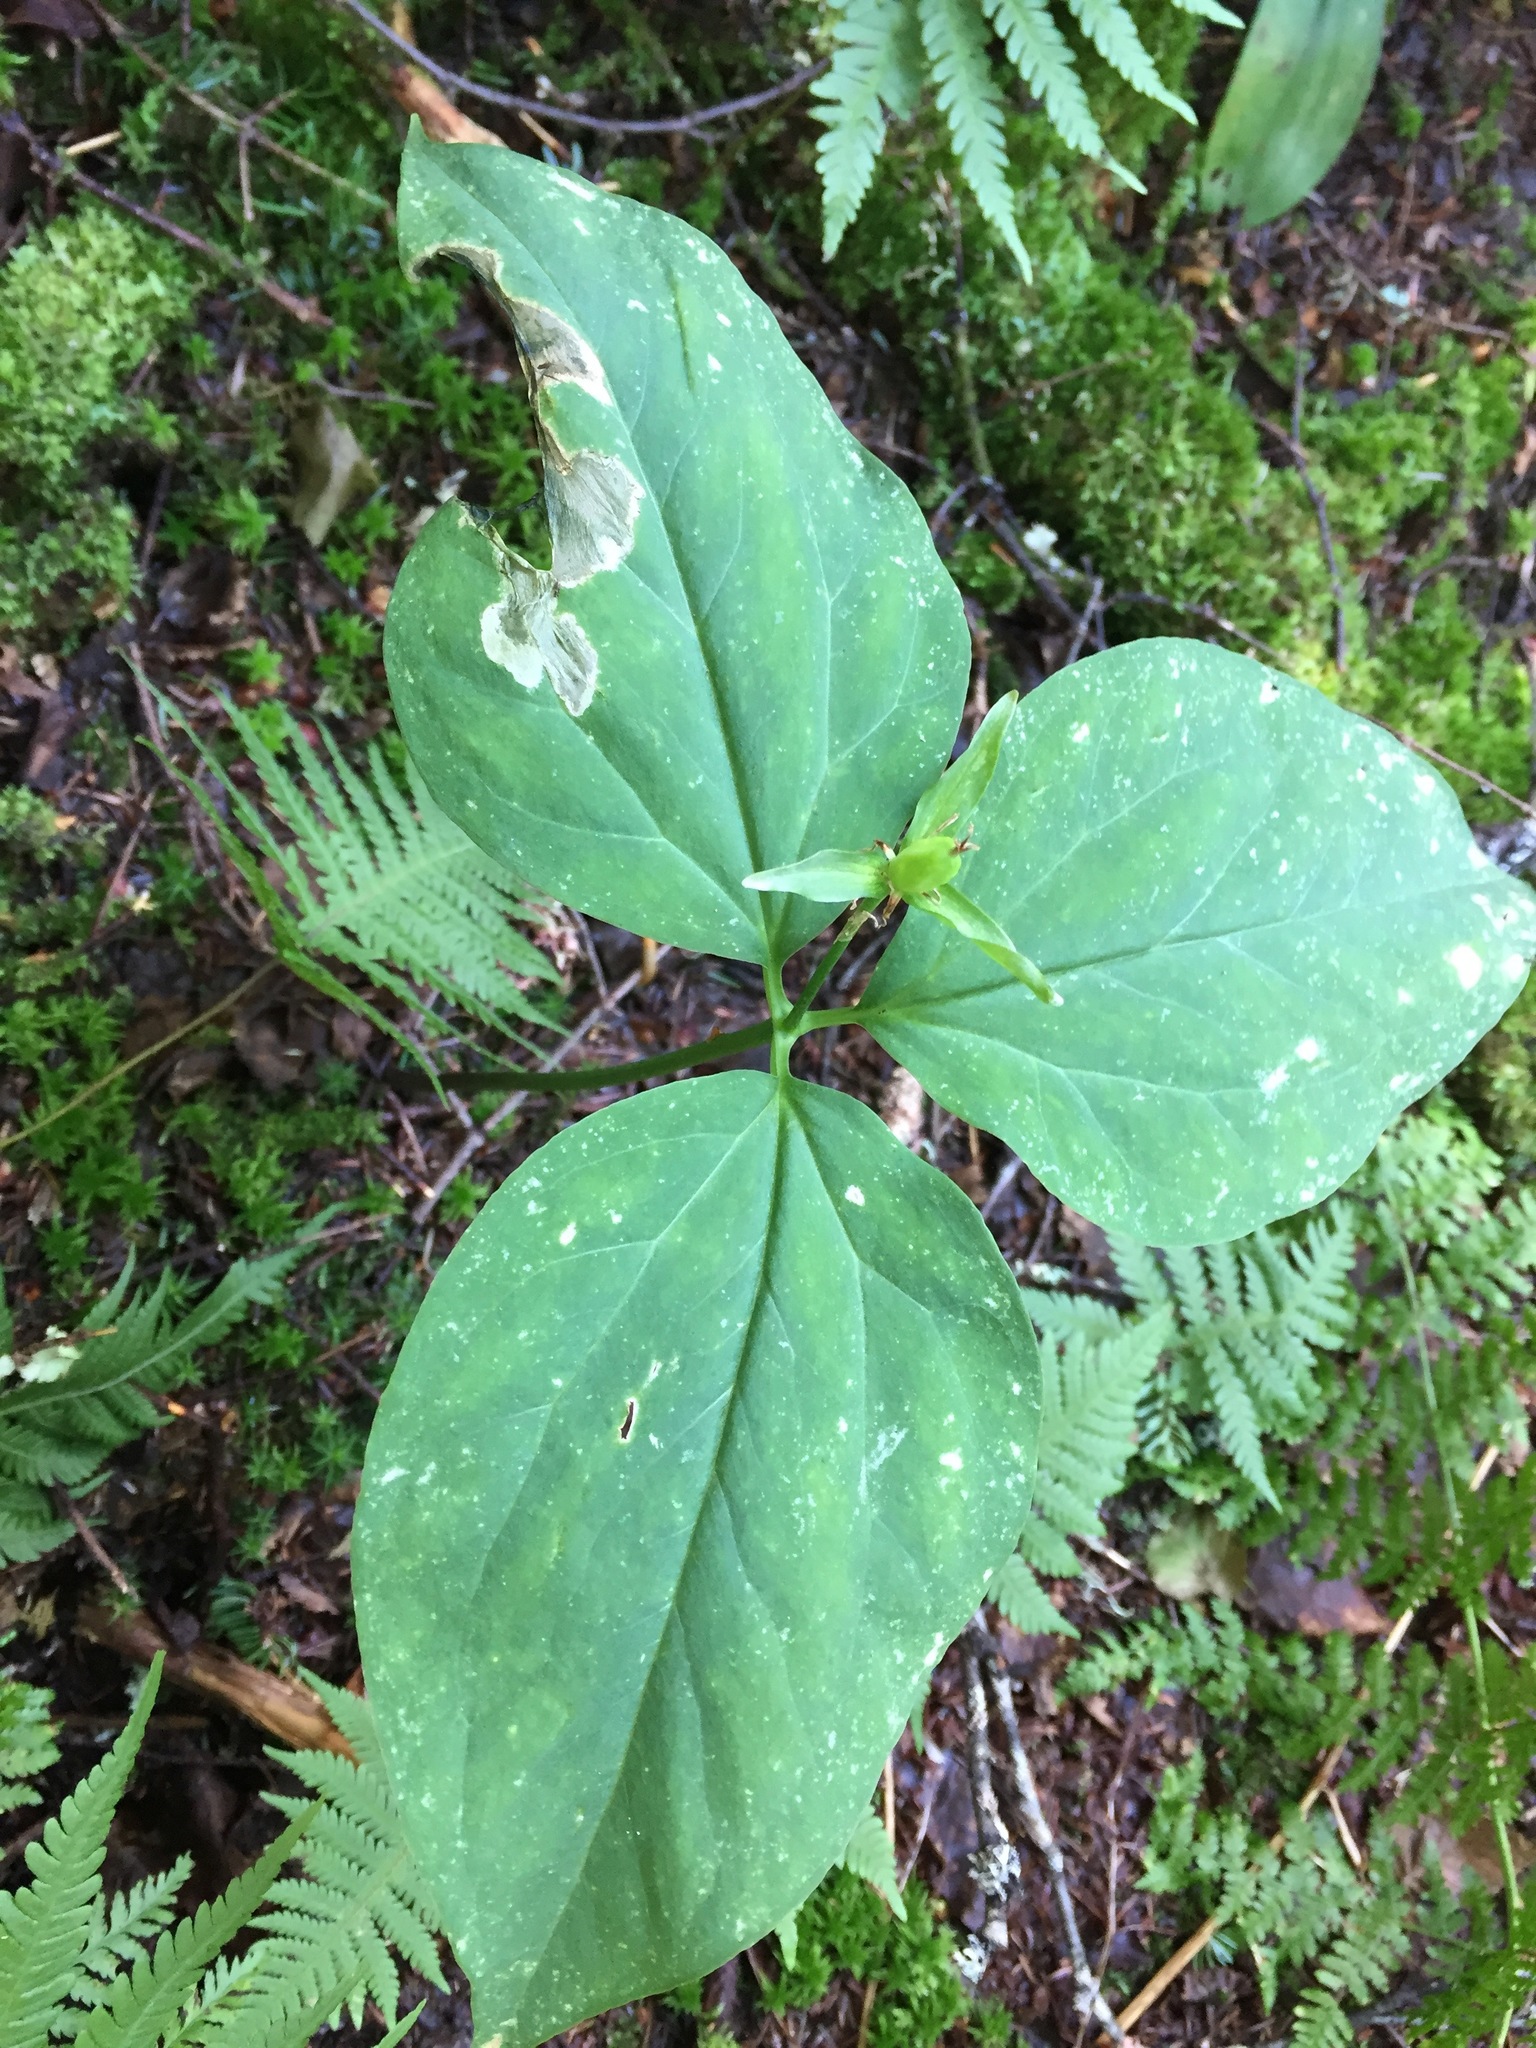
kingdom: Plantae
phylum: Tracheophyta
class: Liliopsida
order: Liliales
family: Melanthiaceae
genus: Trillium
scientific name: Trillium undulatum
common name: Paint trillium
